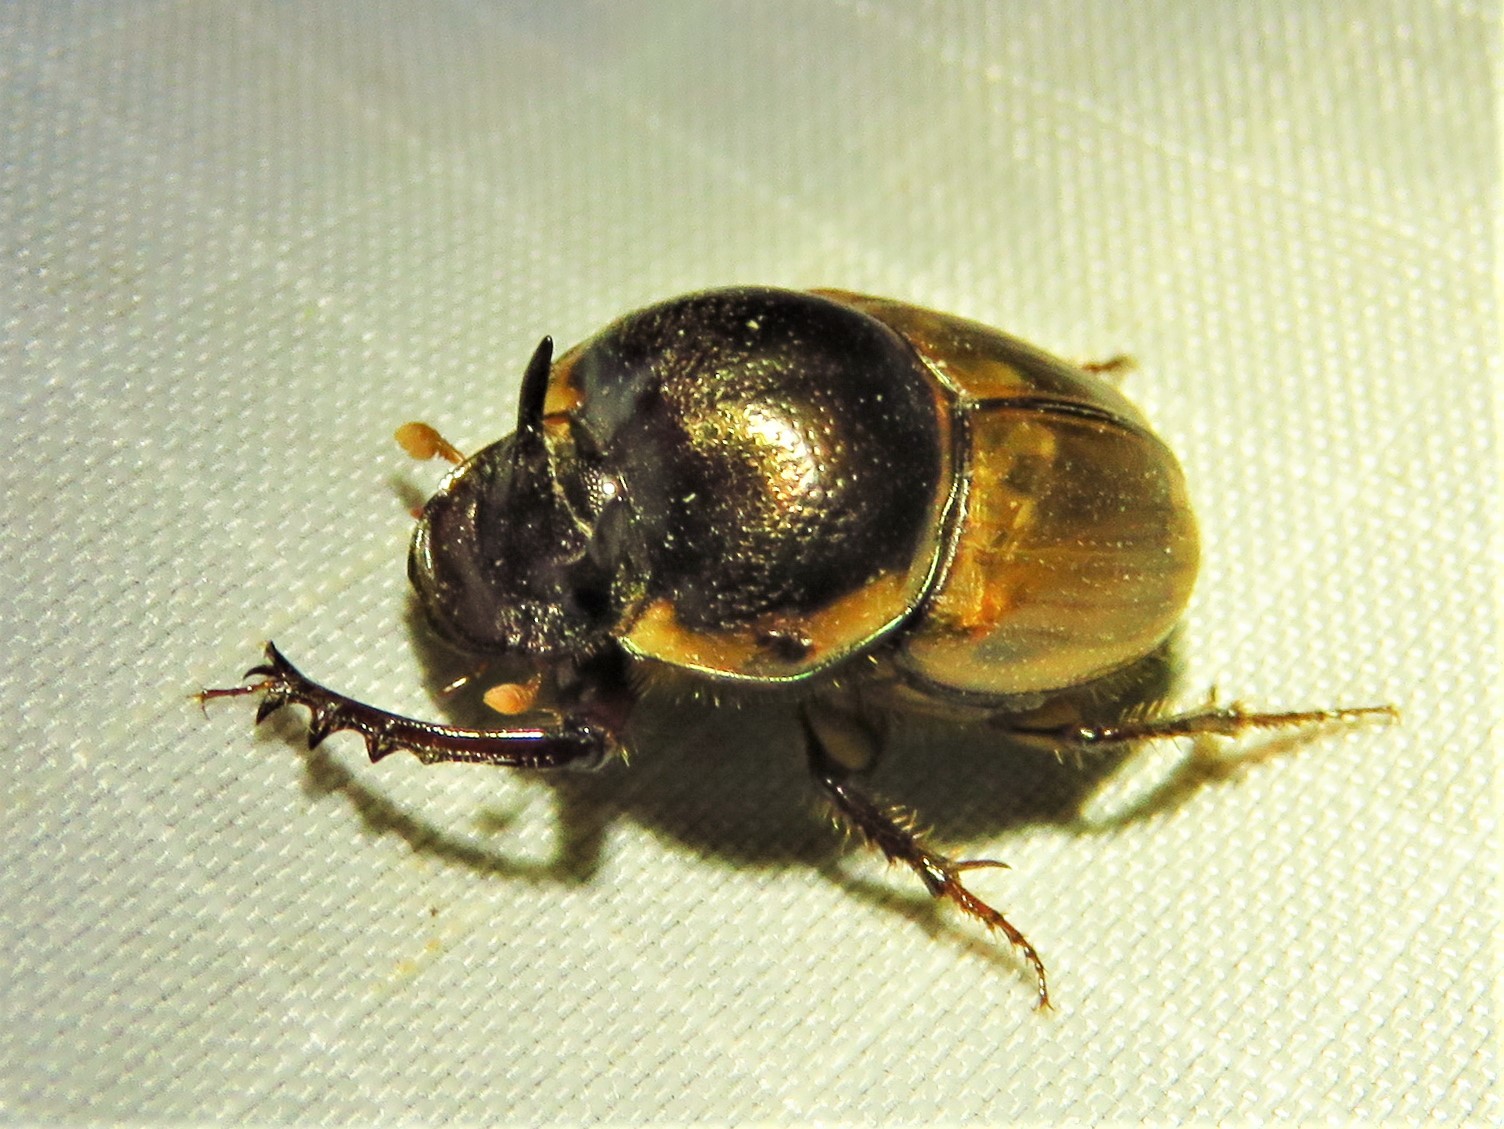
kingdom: Animalia
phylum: Arthropoda
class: Insecta
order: Coleoptera
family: Scarabaeidae
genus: Digitonthophagus
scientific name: Digitonthophagus gazella
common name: Brown dung beetle
